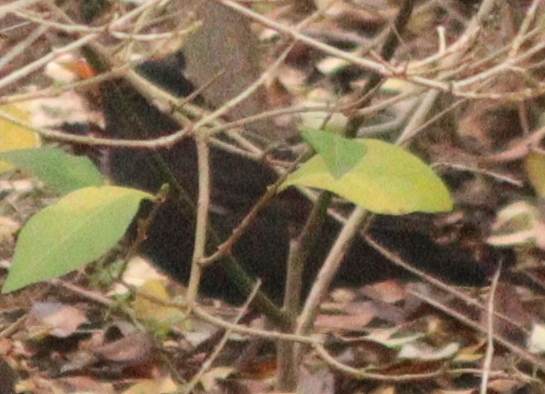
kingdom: Animalia
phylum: Chordata
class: Aves
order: Passeriformes
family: Turdidae
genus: Turdus
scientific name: Turdus merula
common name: Common blackbird
